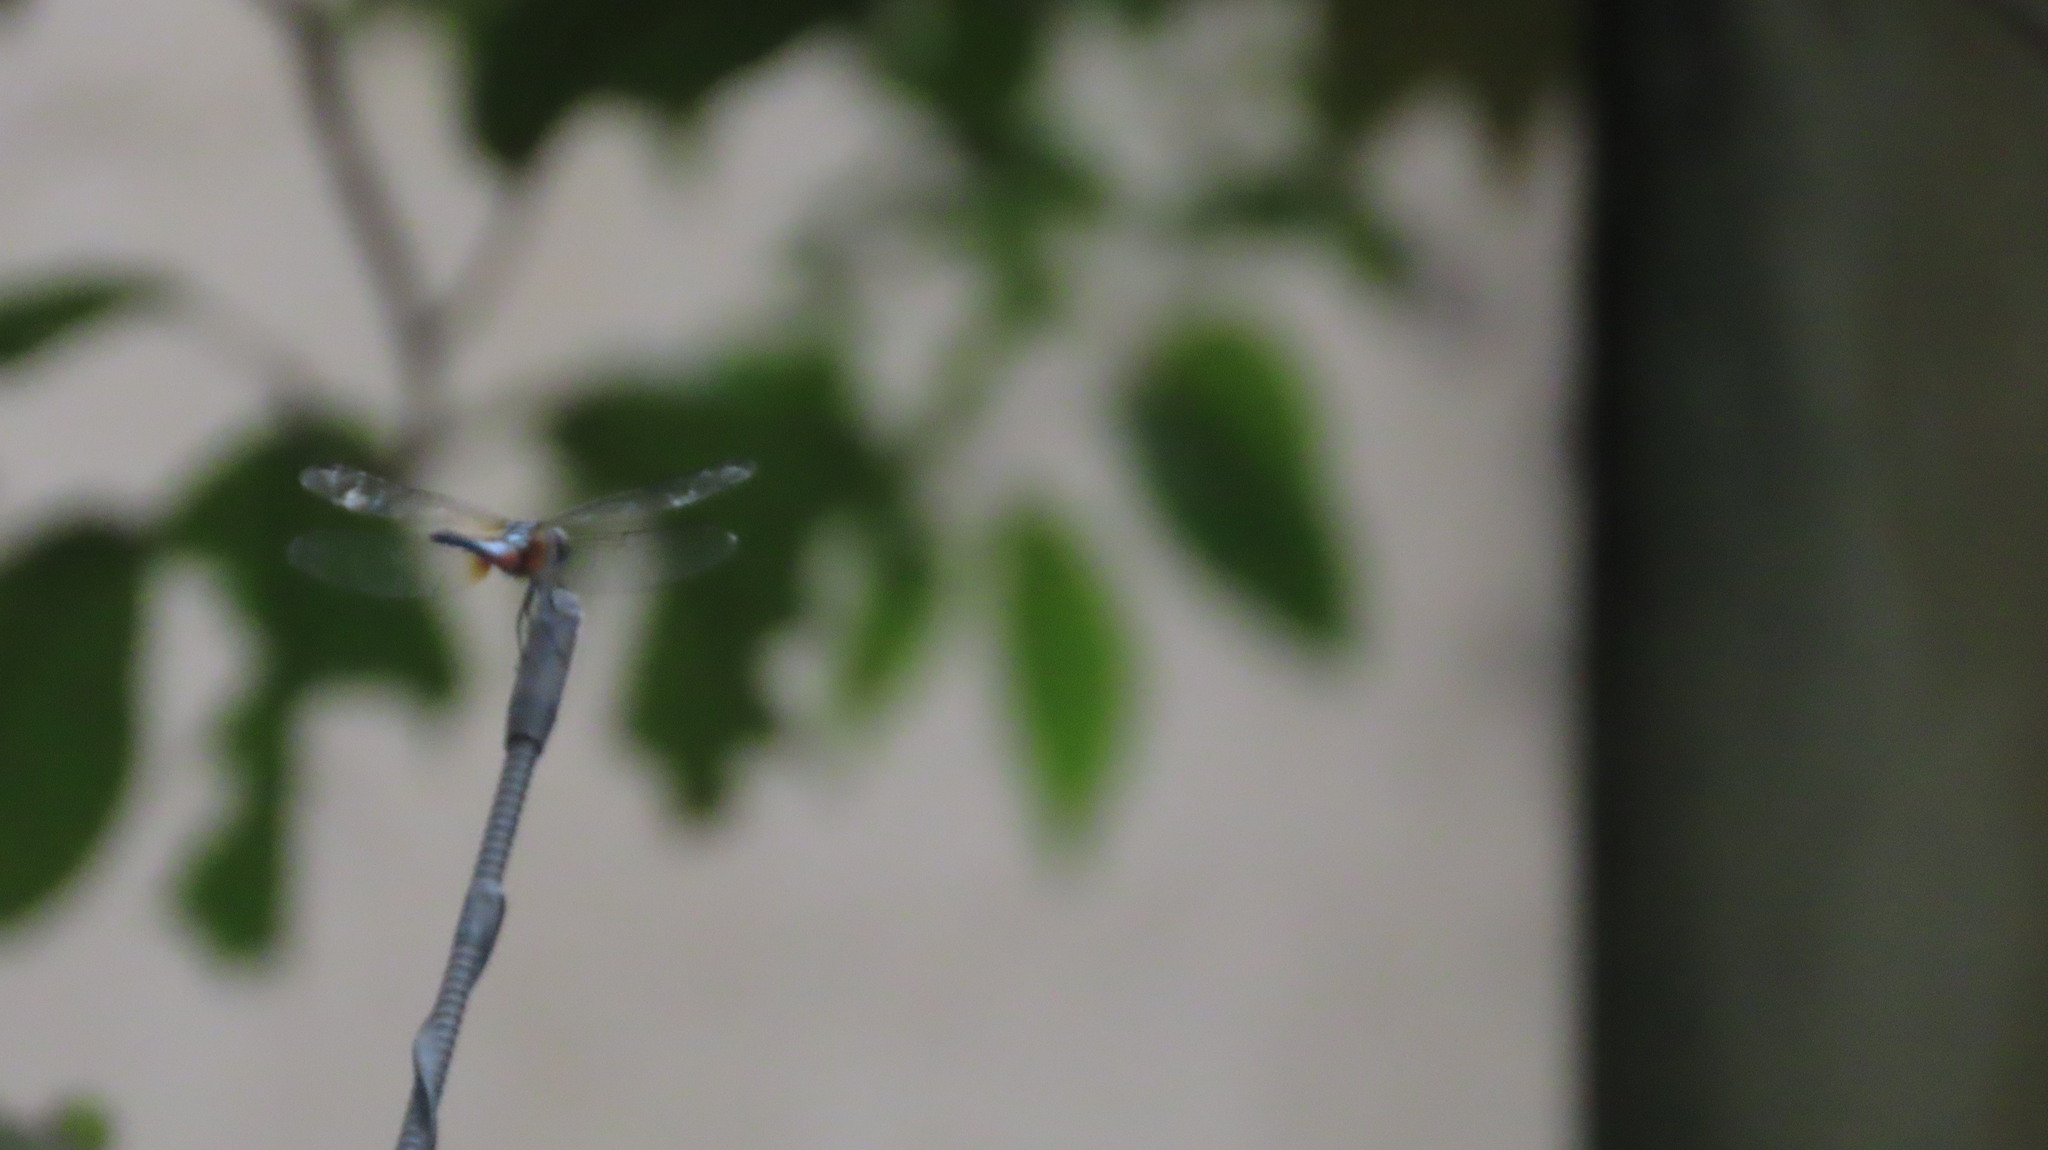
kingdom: Animalia
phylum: Arthropoda
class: Insecta
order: Odonata
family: Libellulidae
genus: Brachydiplax
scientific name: Brachydiplax chalybea
